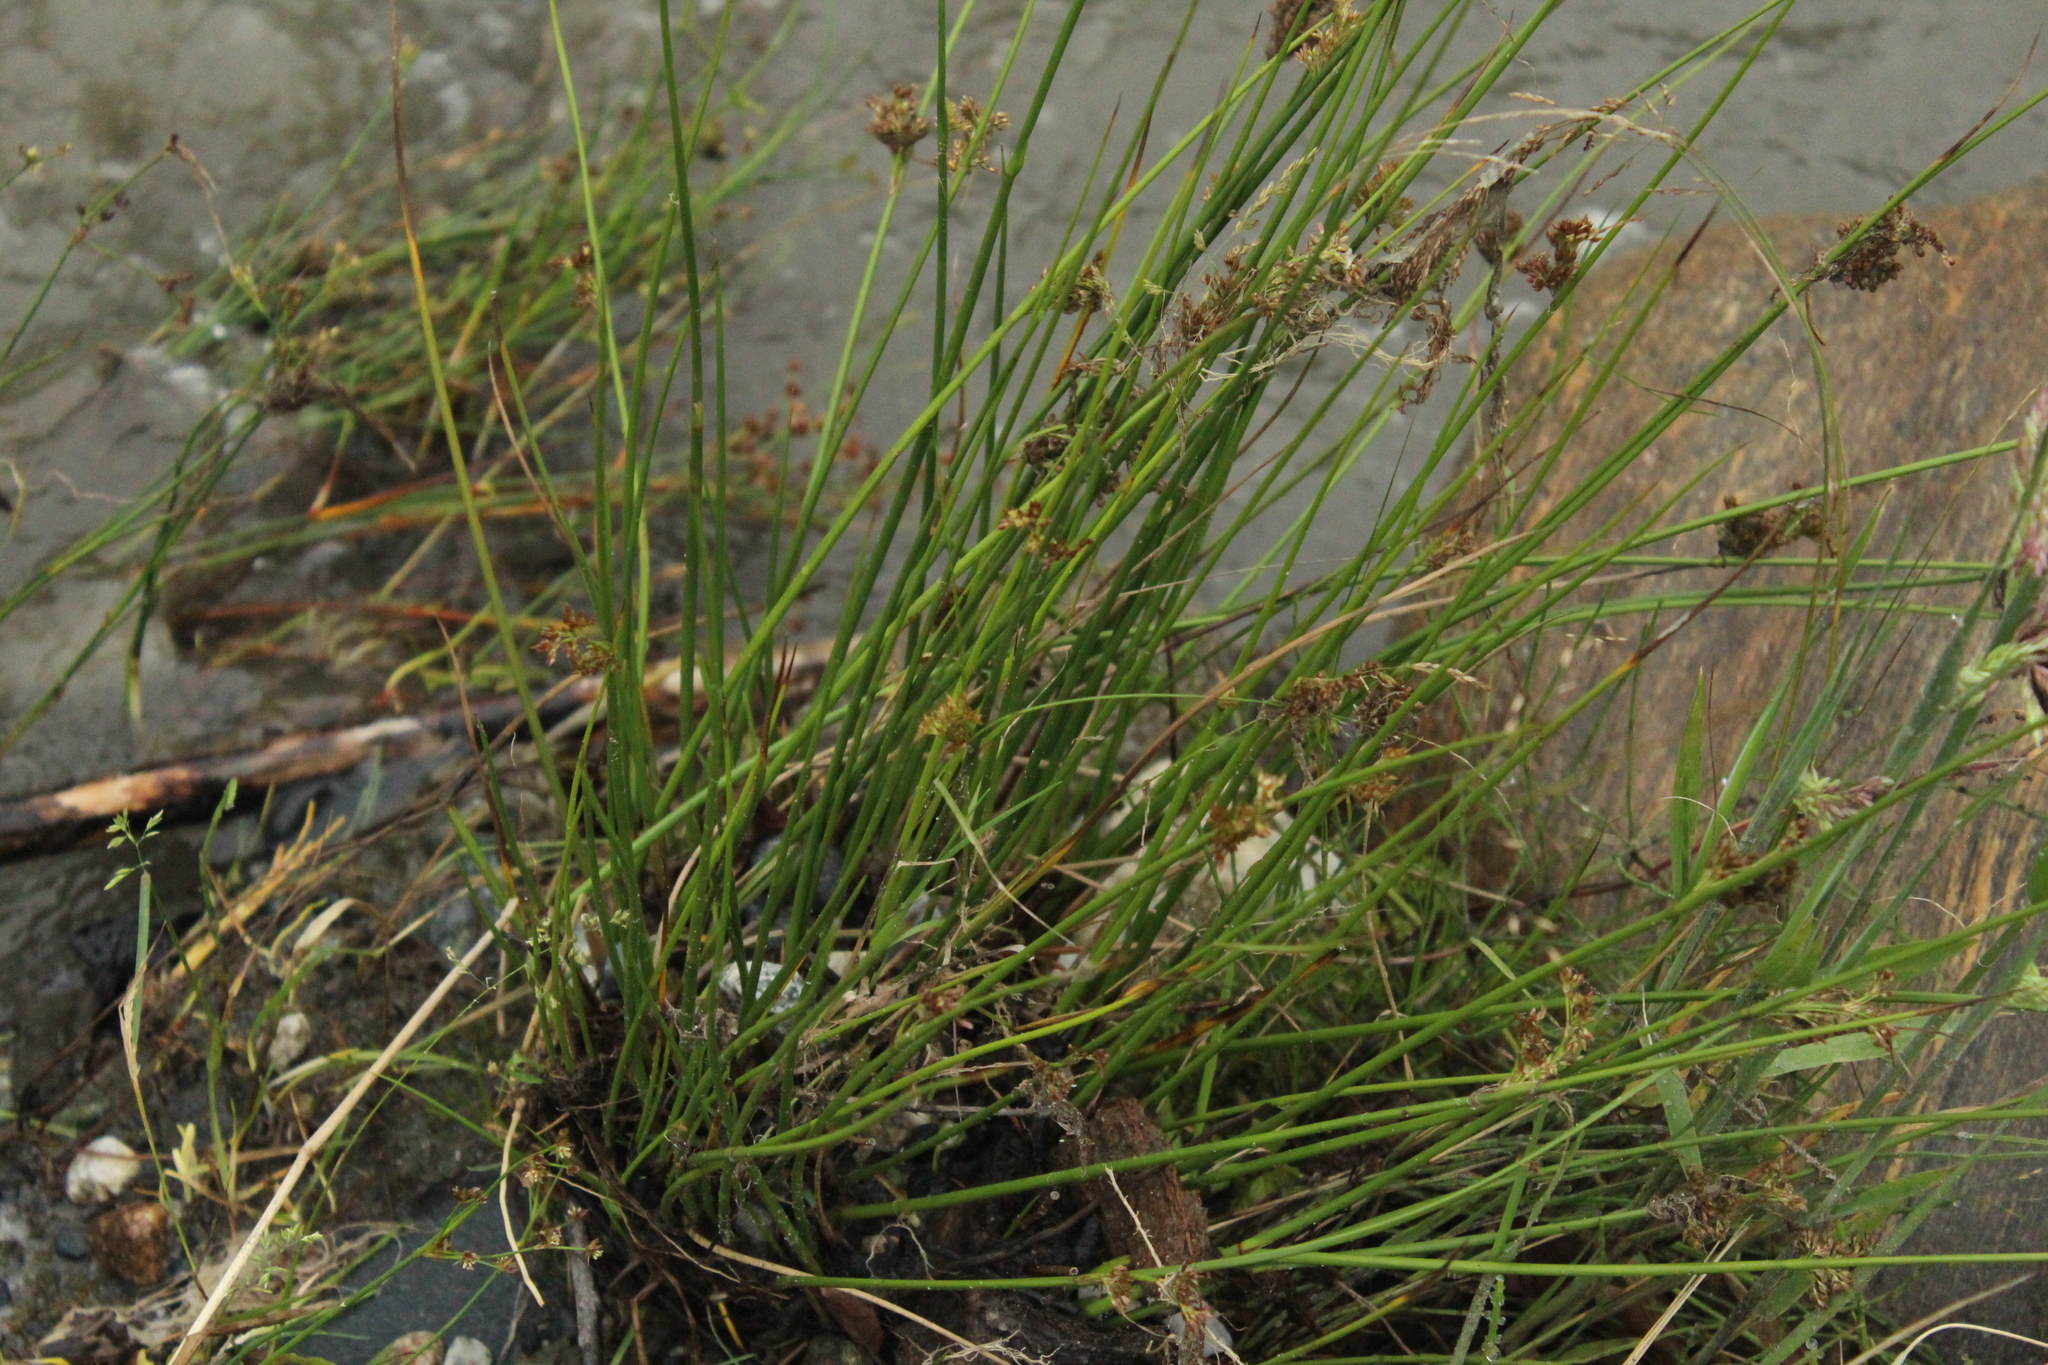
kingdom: Plantae
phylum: Tracheophyta
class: Liliopsida
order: Poales
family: Juncaceae
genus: Juncus
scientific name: Juncus effusus
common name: Soft rush
